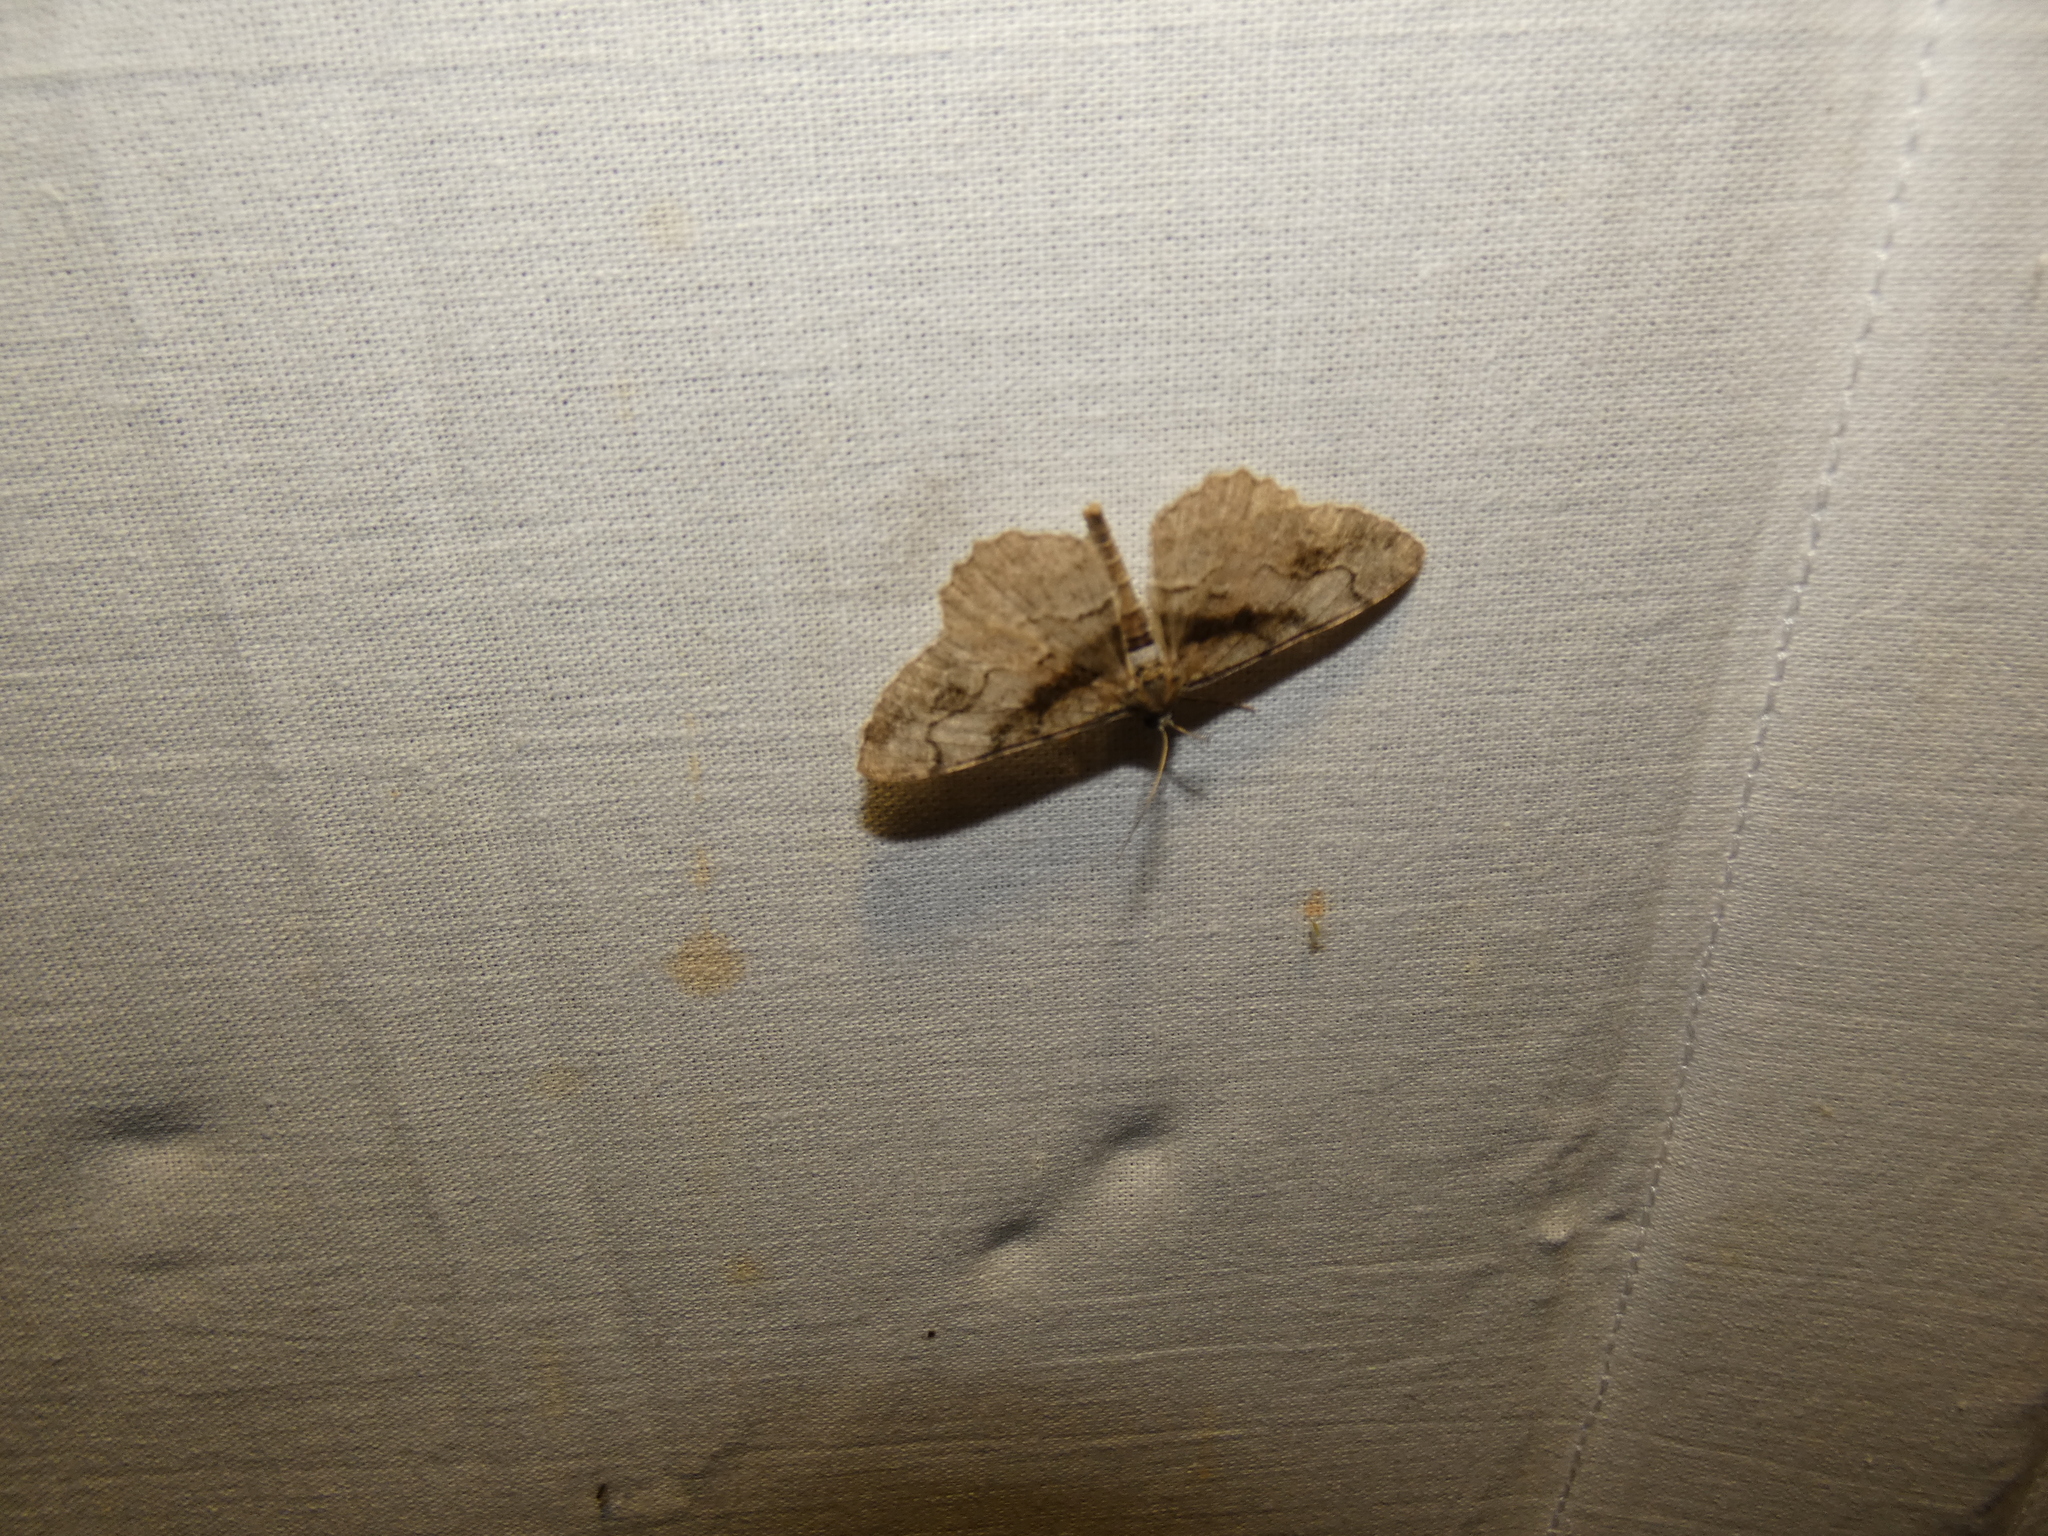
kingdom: Animalia
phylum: Arthropoda
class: Insecta
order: Lepidoptera
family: Geometridae
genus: Alcis
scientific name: Alcis deversata
